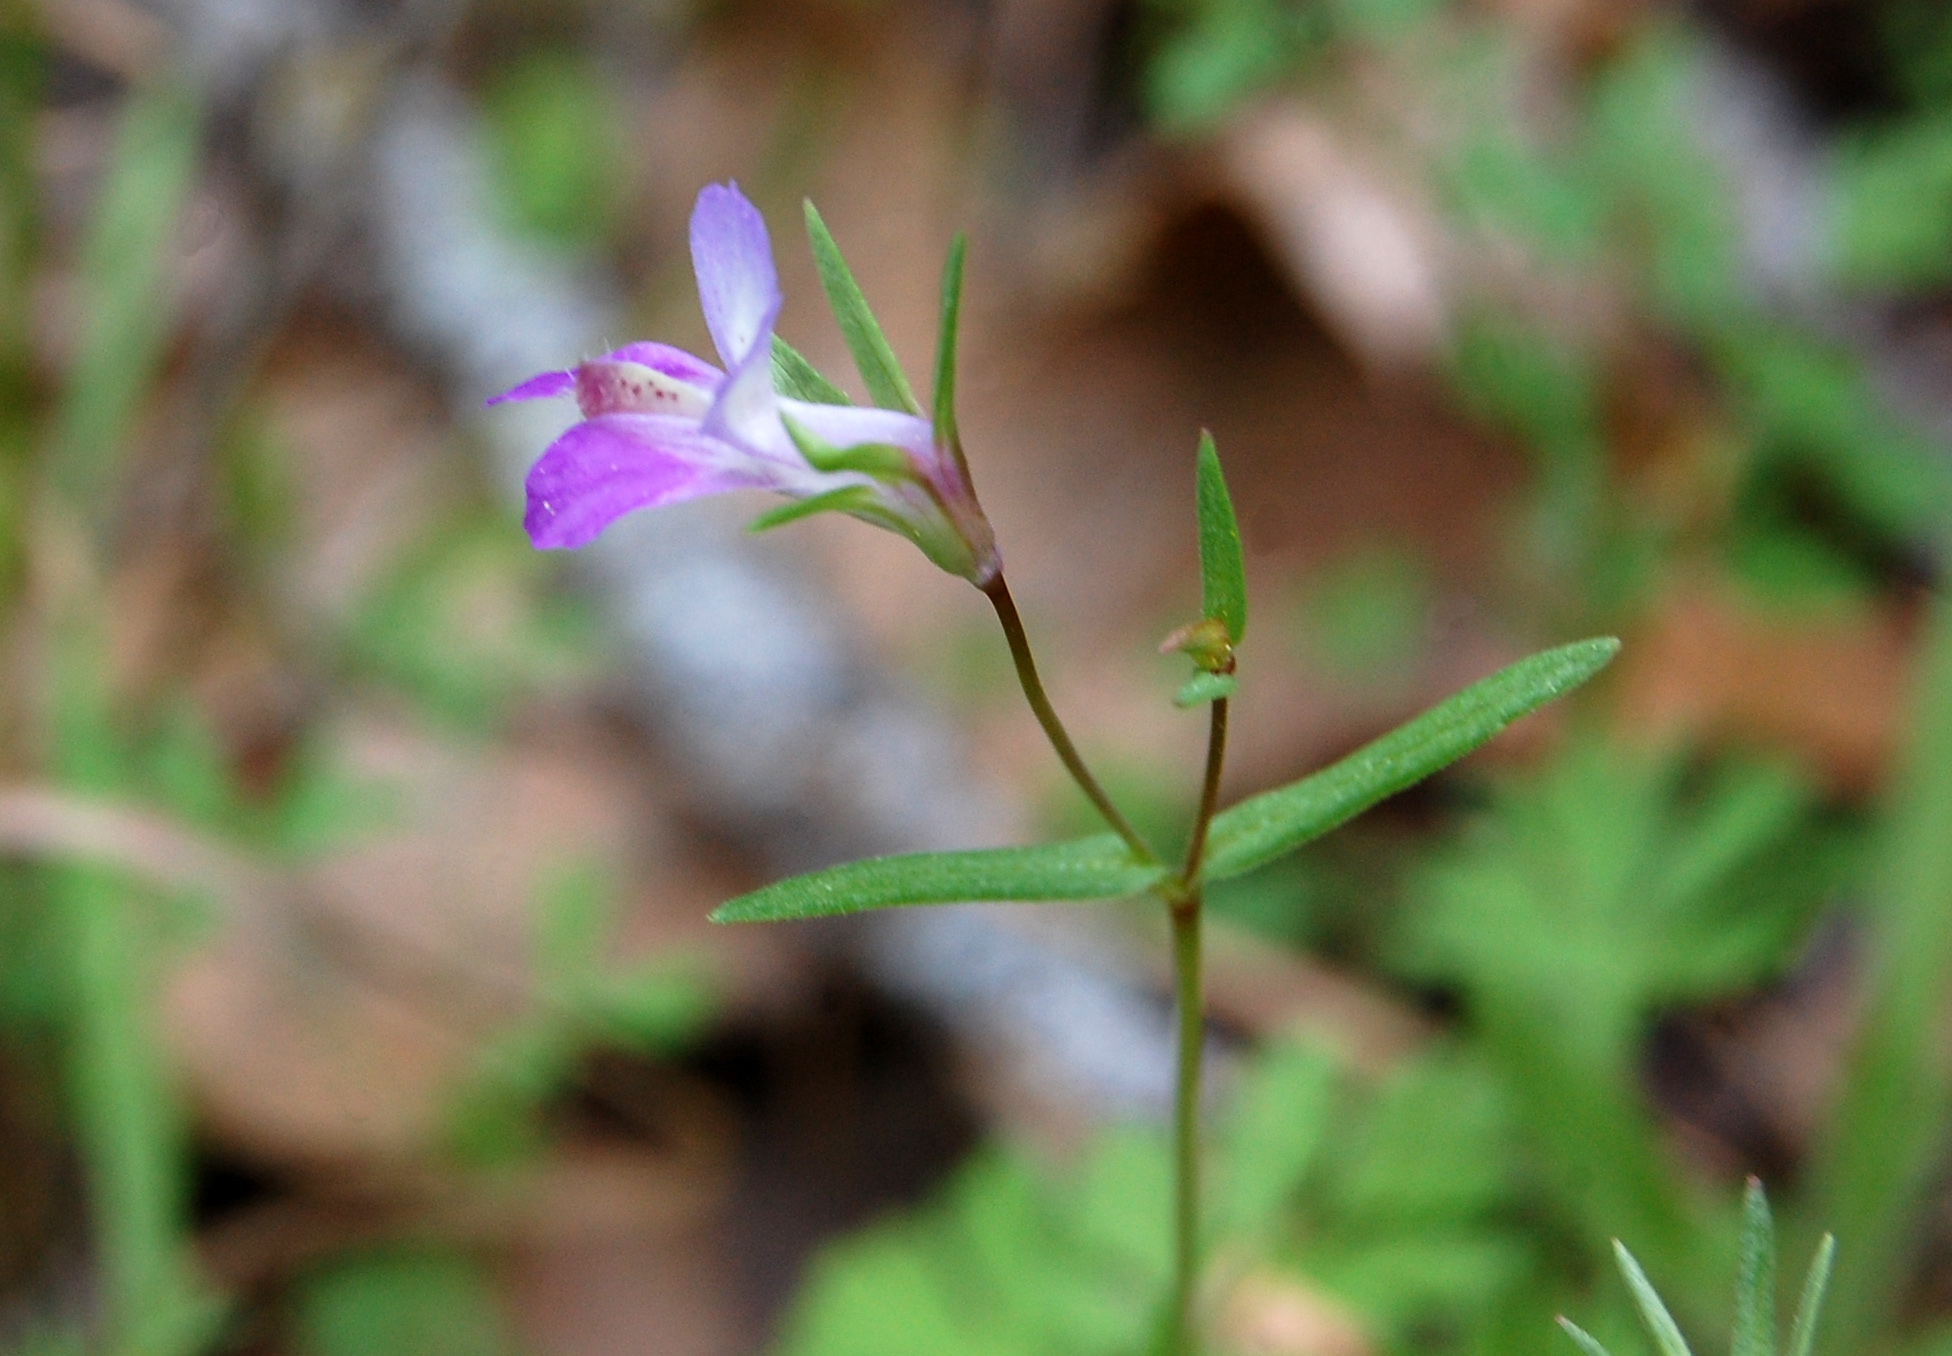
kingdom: Plantae
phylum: Tracheophyta
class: Magnoliopsida
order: Lamiales
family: Plantaginaceae
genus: Collinsia
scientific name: Collinsia sparsiflora
